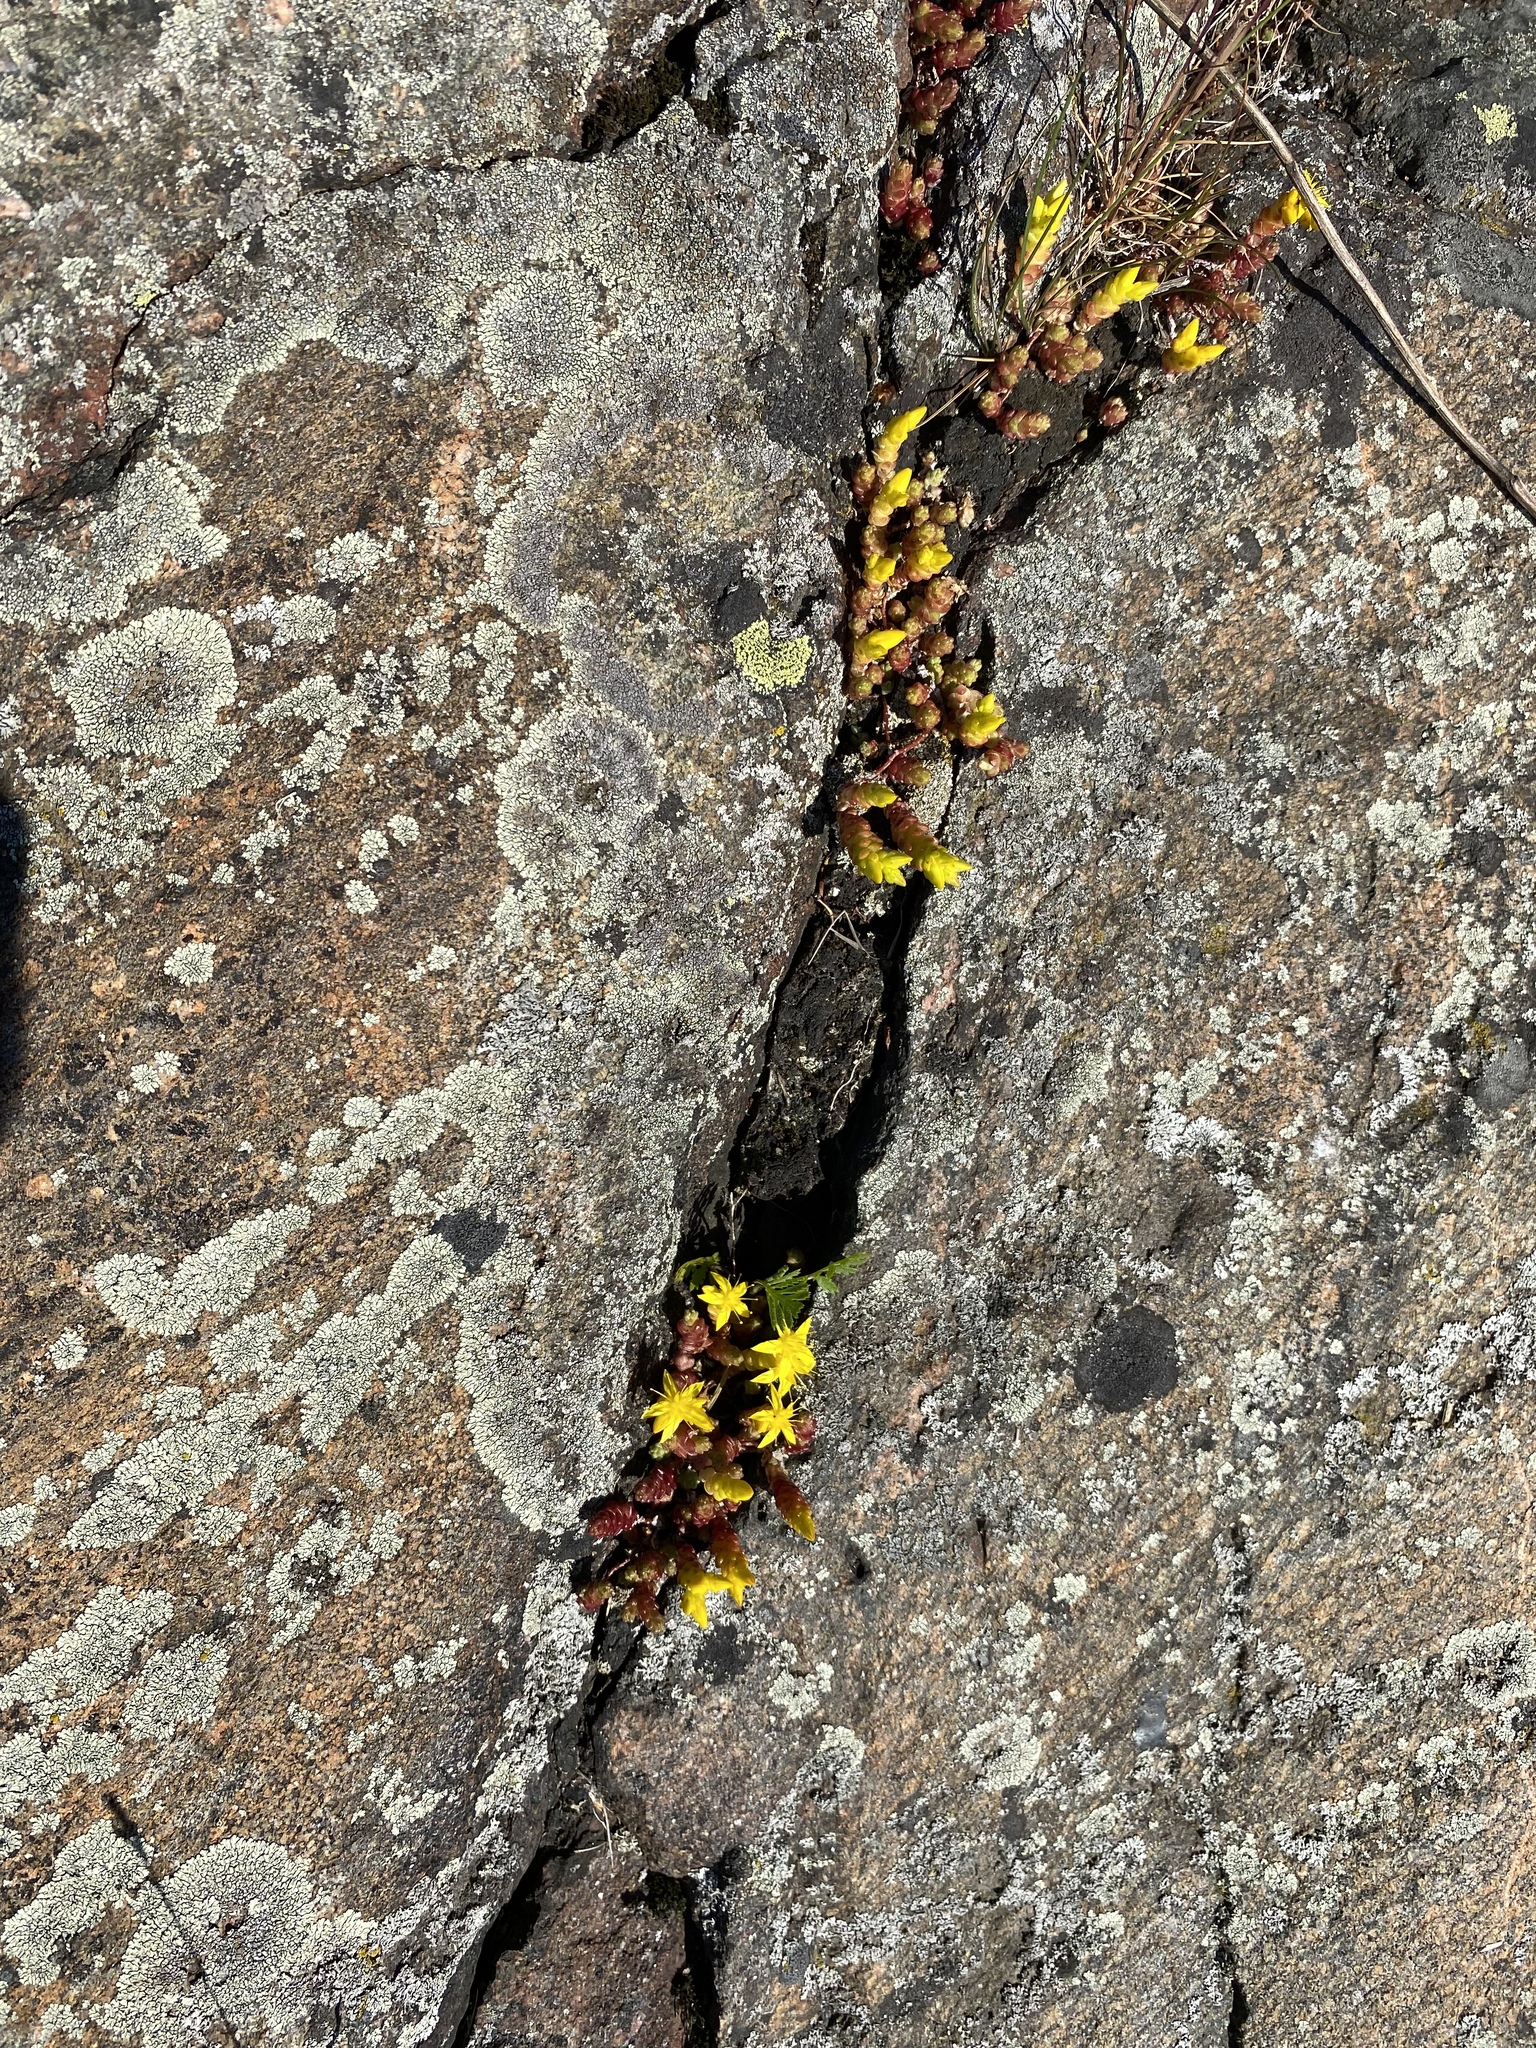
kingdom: Plantae
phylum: Tracheophyta
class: Magnoliopsida
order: Saxifragales
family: Crassulaceae
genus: Sedum
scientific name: Sedum acre
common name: Biting stonecrop
